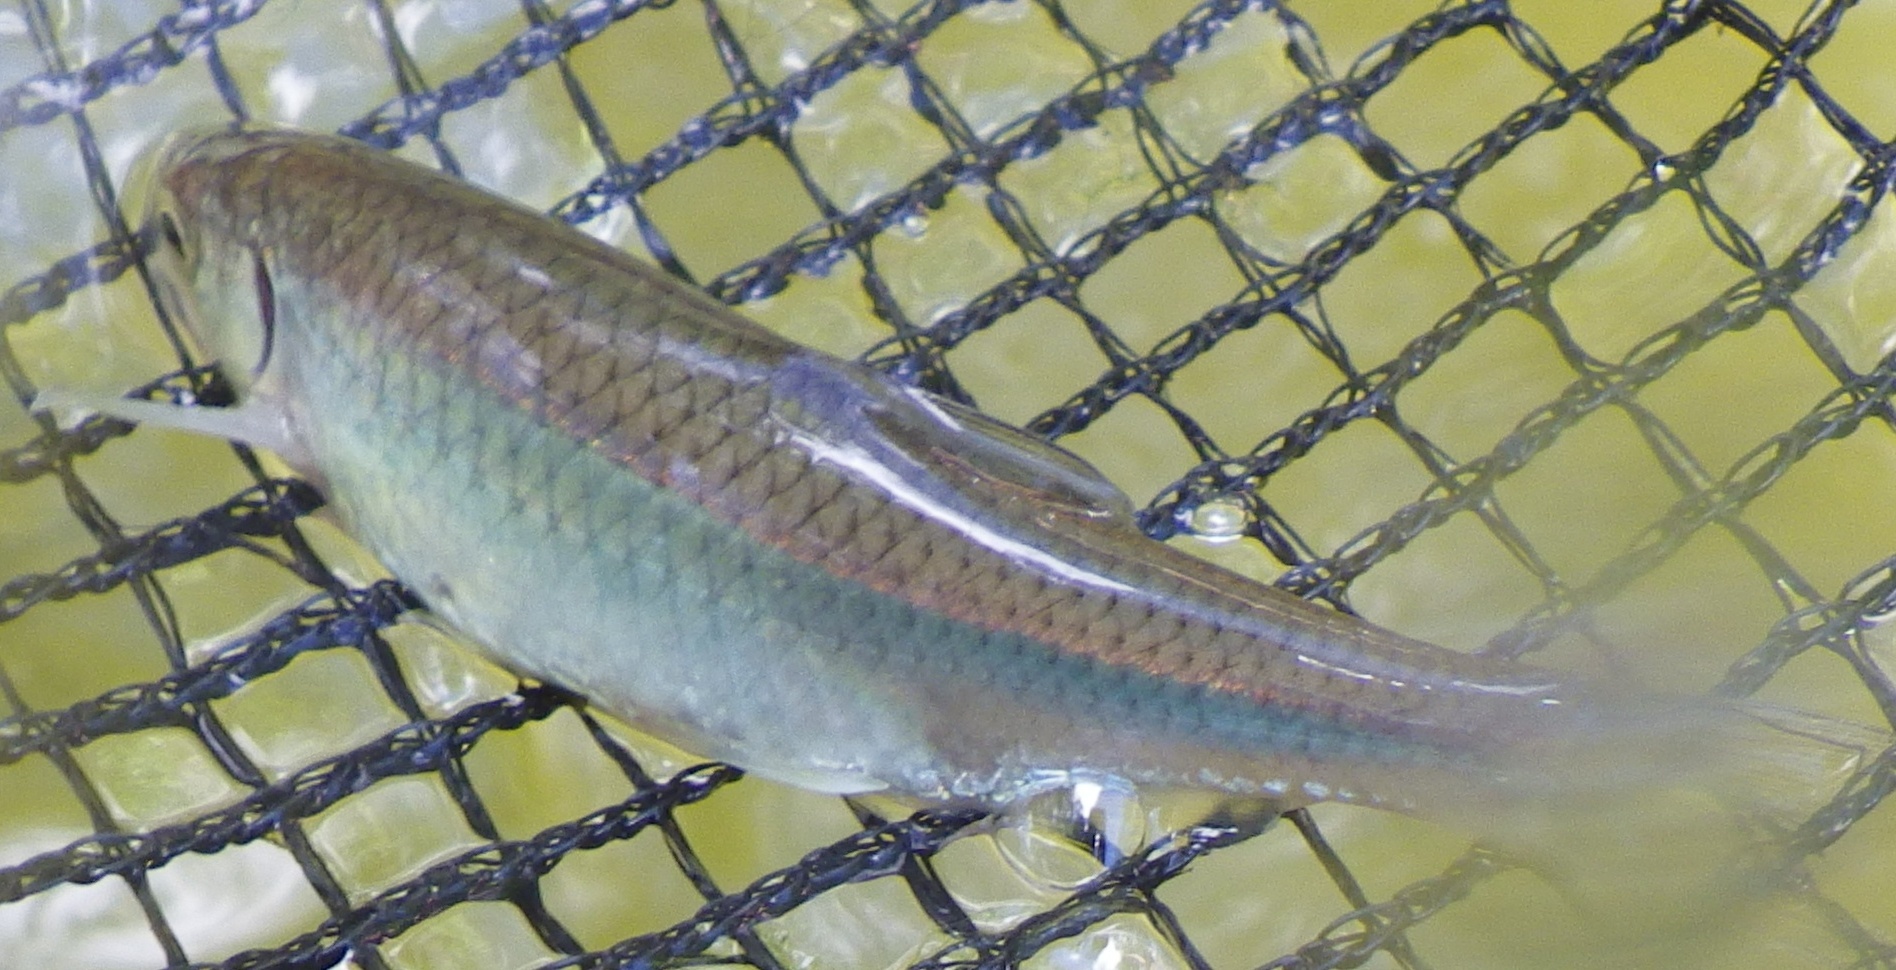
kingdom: Animalia
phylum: Chordata
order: Cypriniformes
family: Cyprinidae
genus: Cyprinella
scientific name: Cyprinella spiloptera
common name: Spotfin shiner
